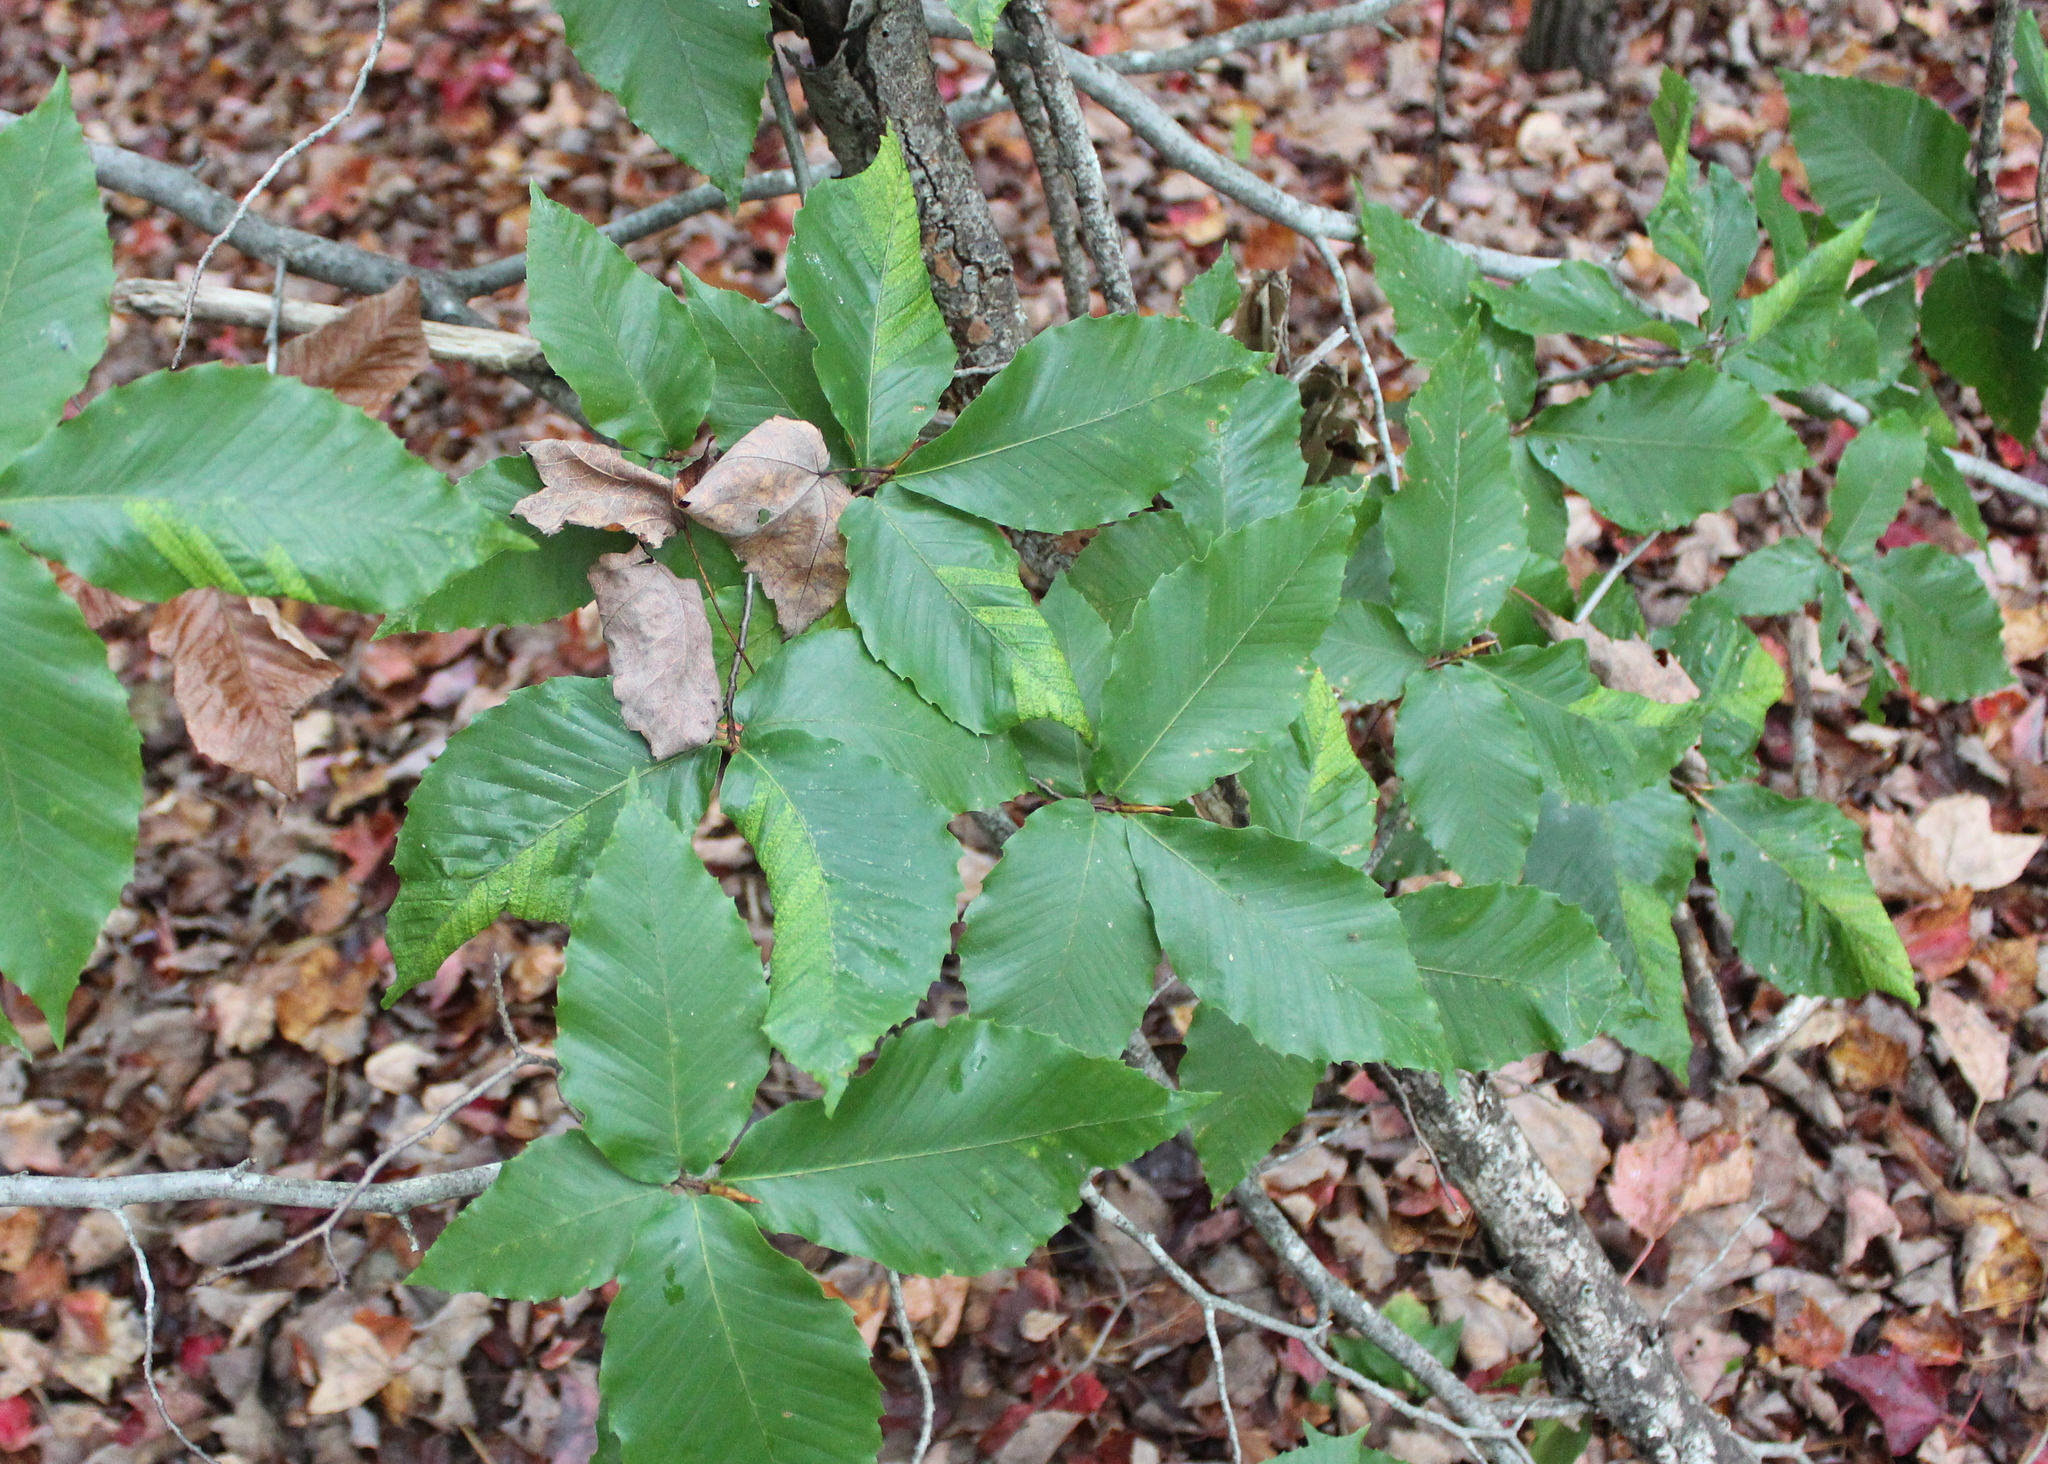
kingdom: Plantae
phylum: Tracheophyta
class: Magnoliopsida
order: Fagales
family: Fagaceae
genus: Fagus
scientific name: Fagus grandifolia
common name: American beech
